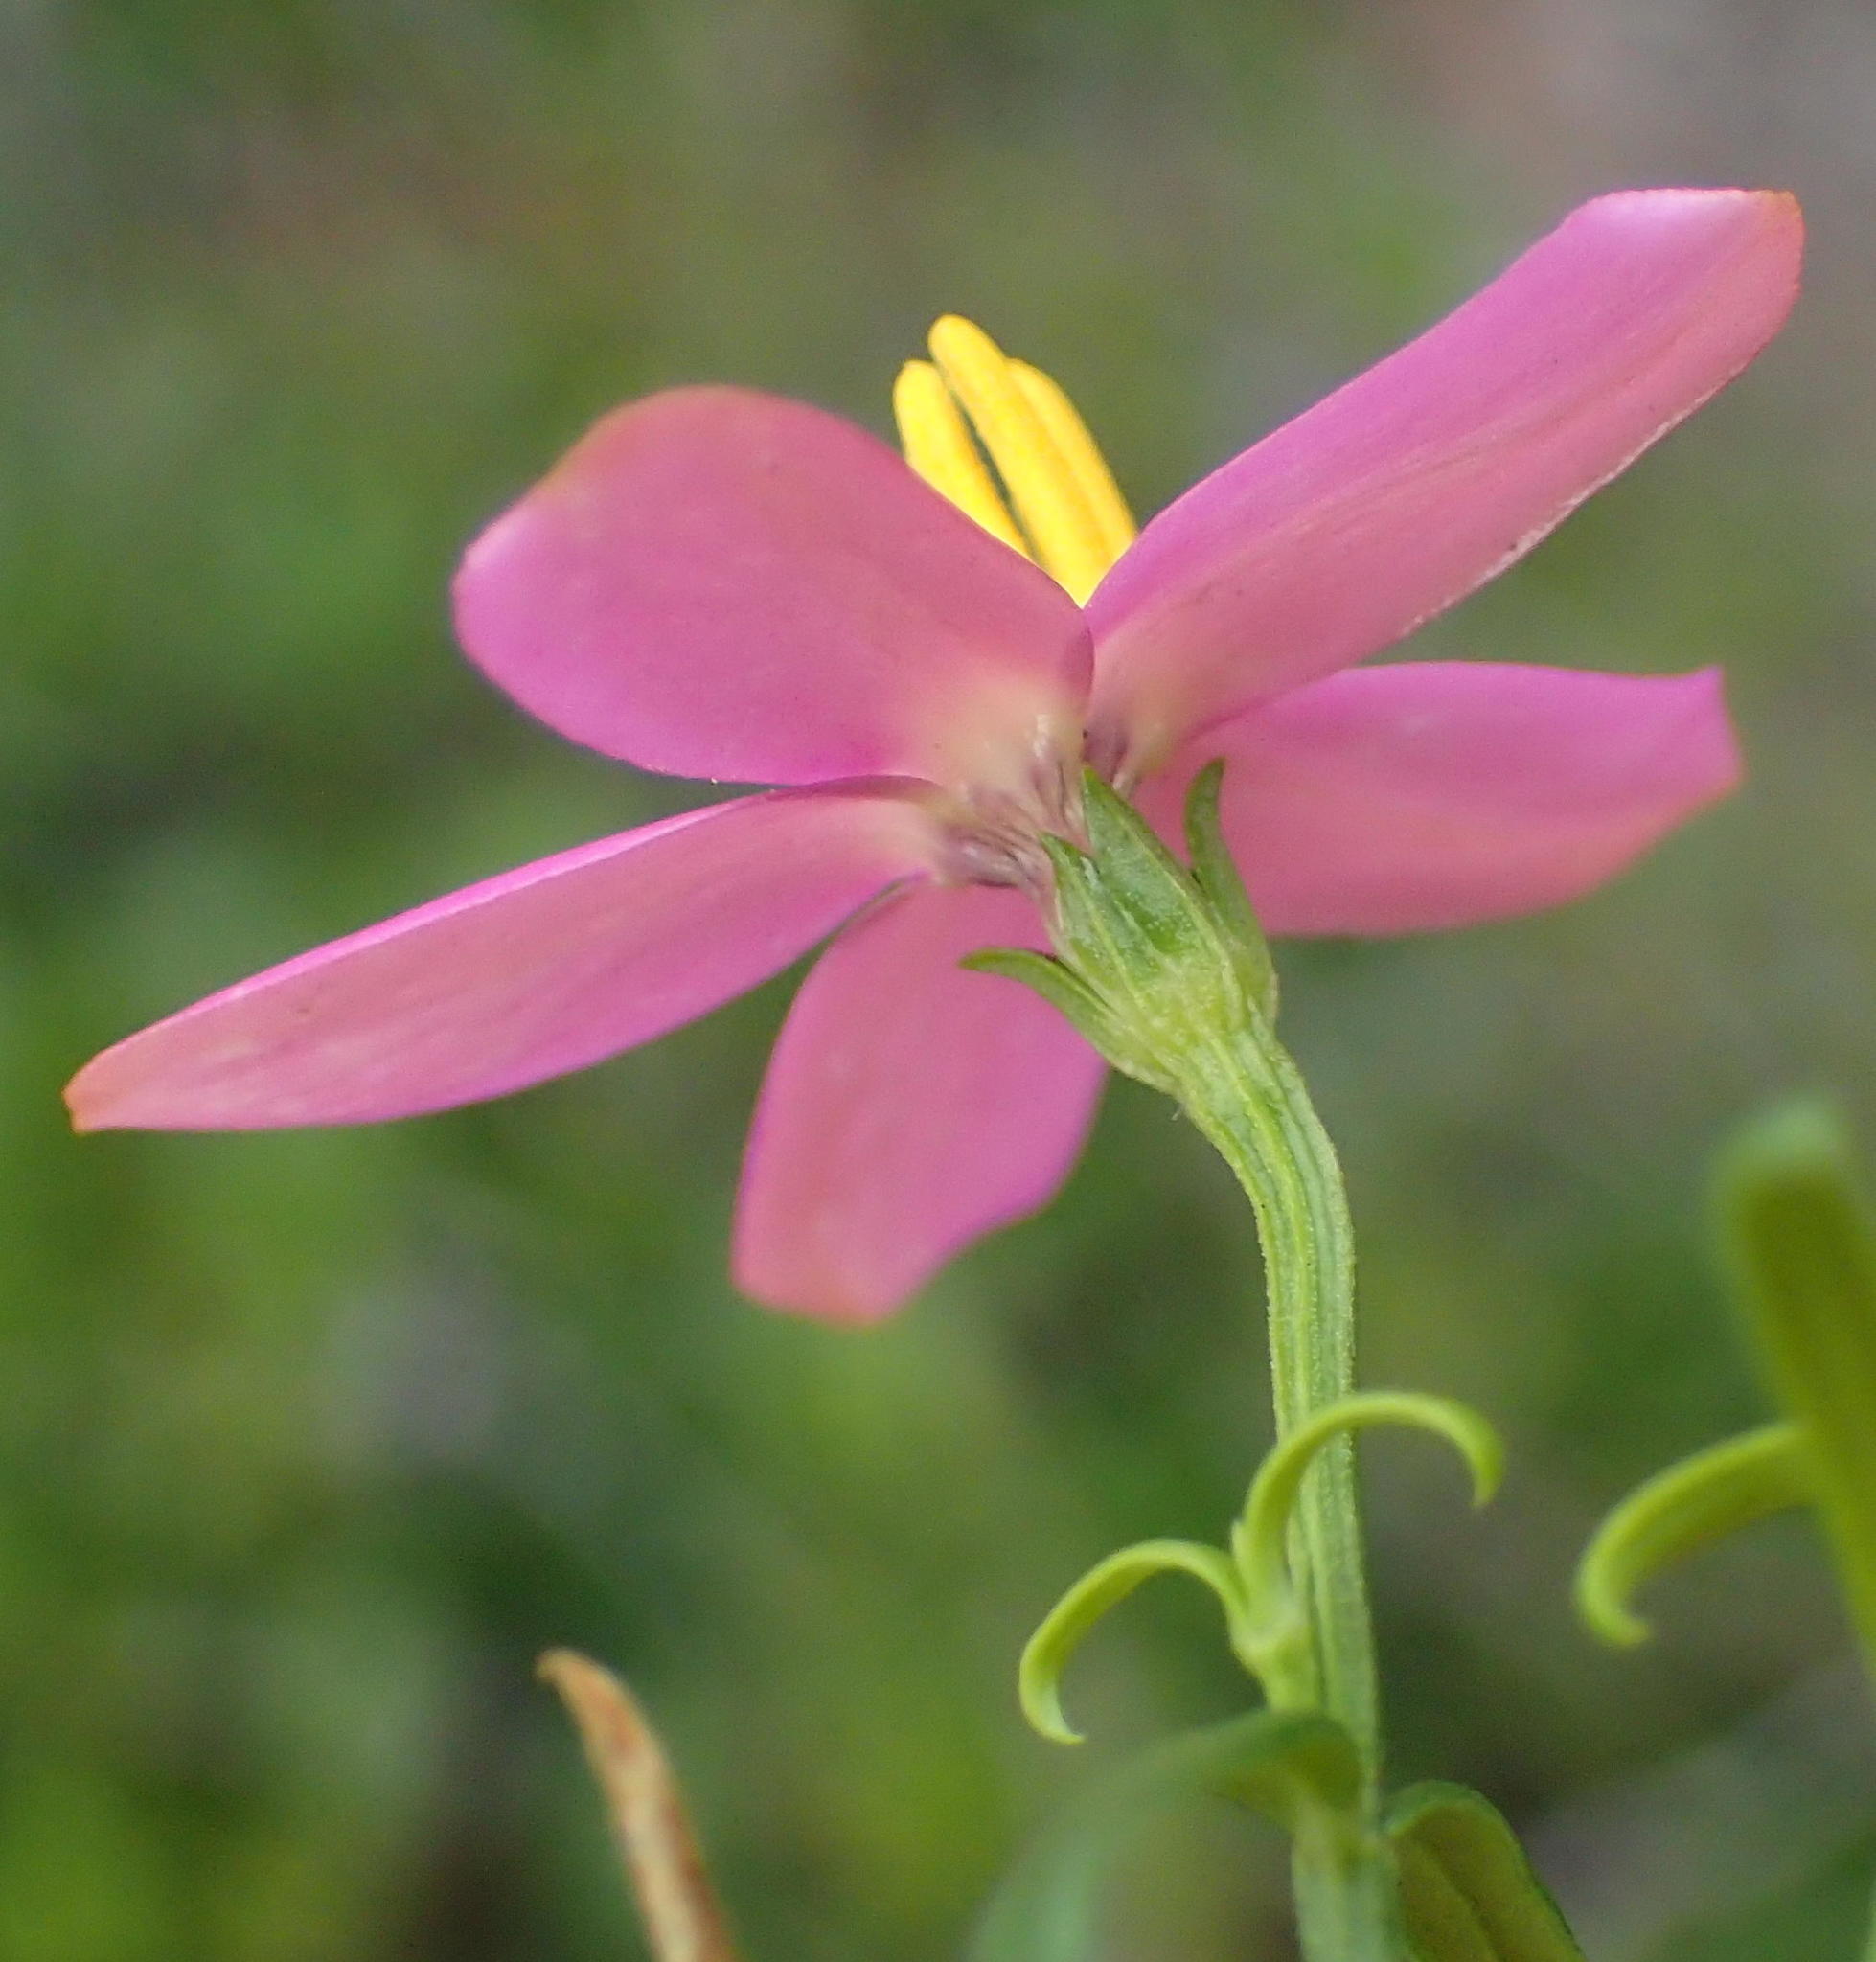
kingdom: Plantae
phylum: Tracheophyta
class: Magnoliopsida
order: Gentianales
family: Gentianaceae
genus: Chironia
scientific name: Chironia baccifera
